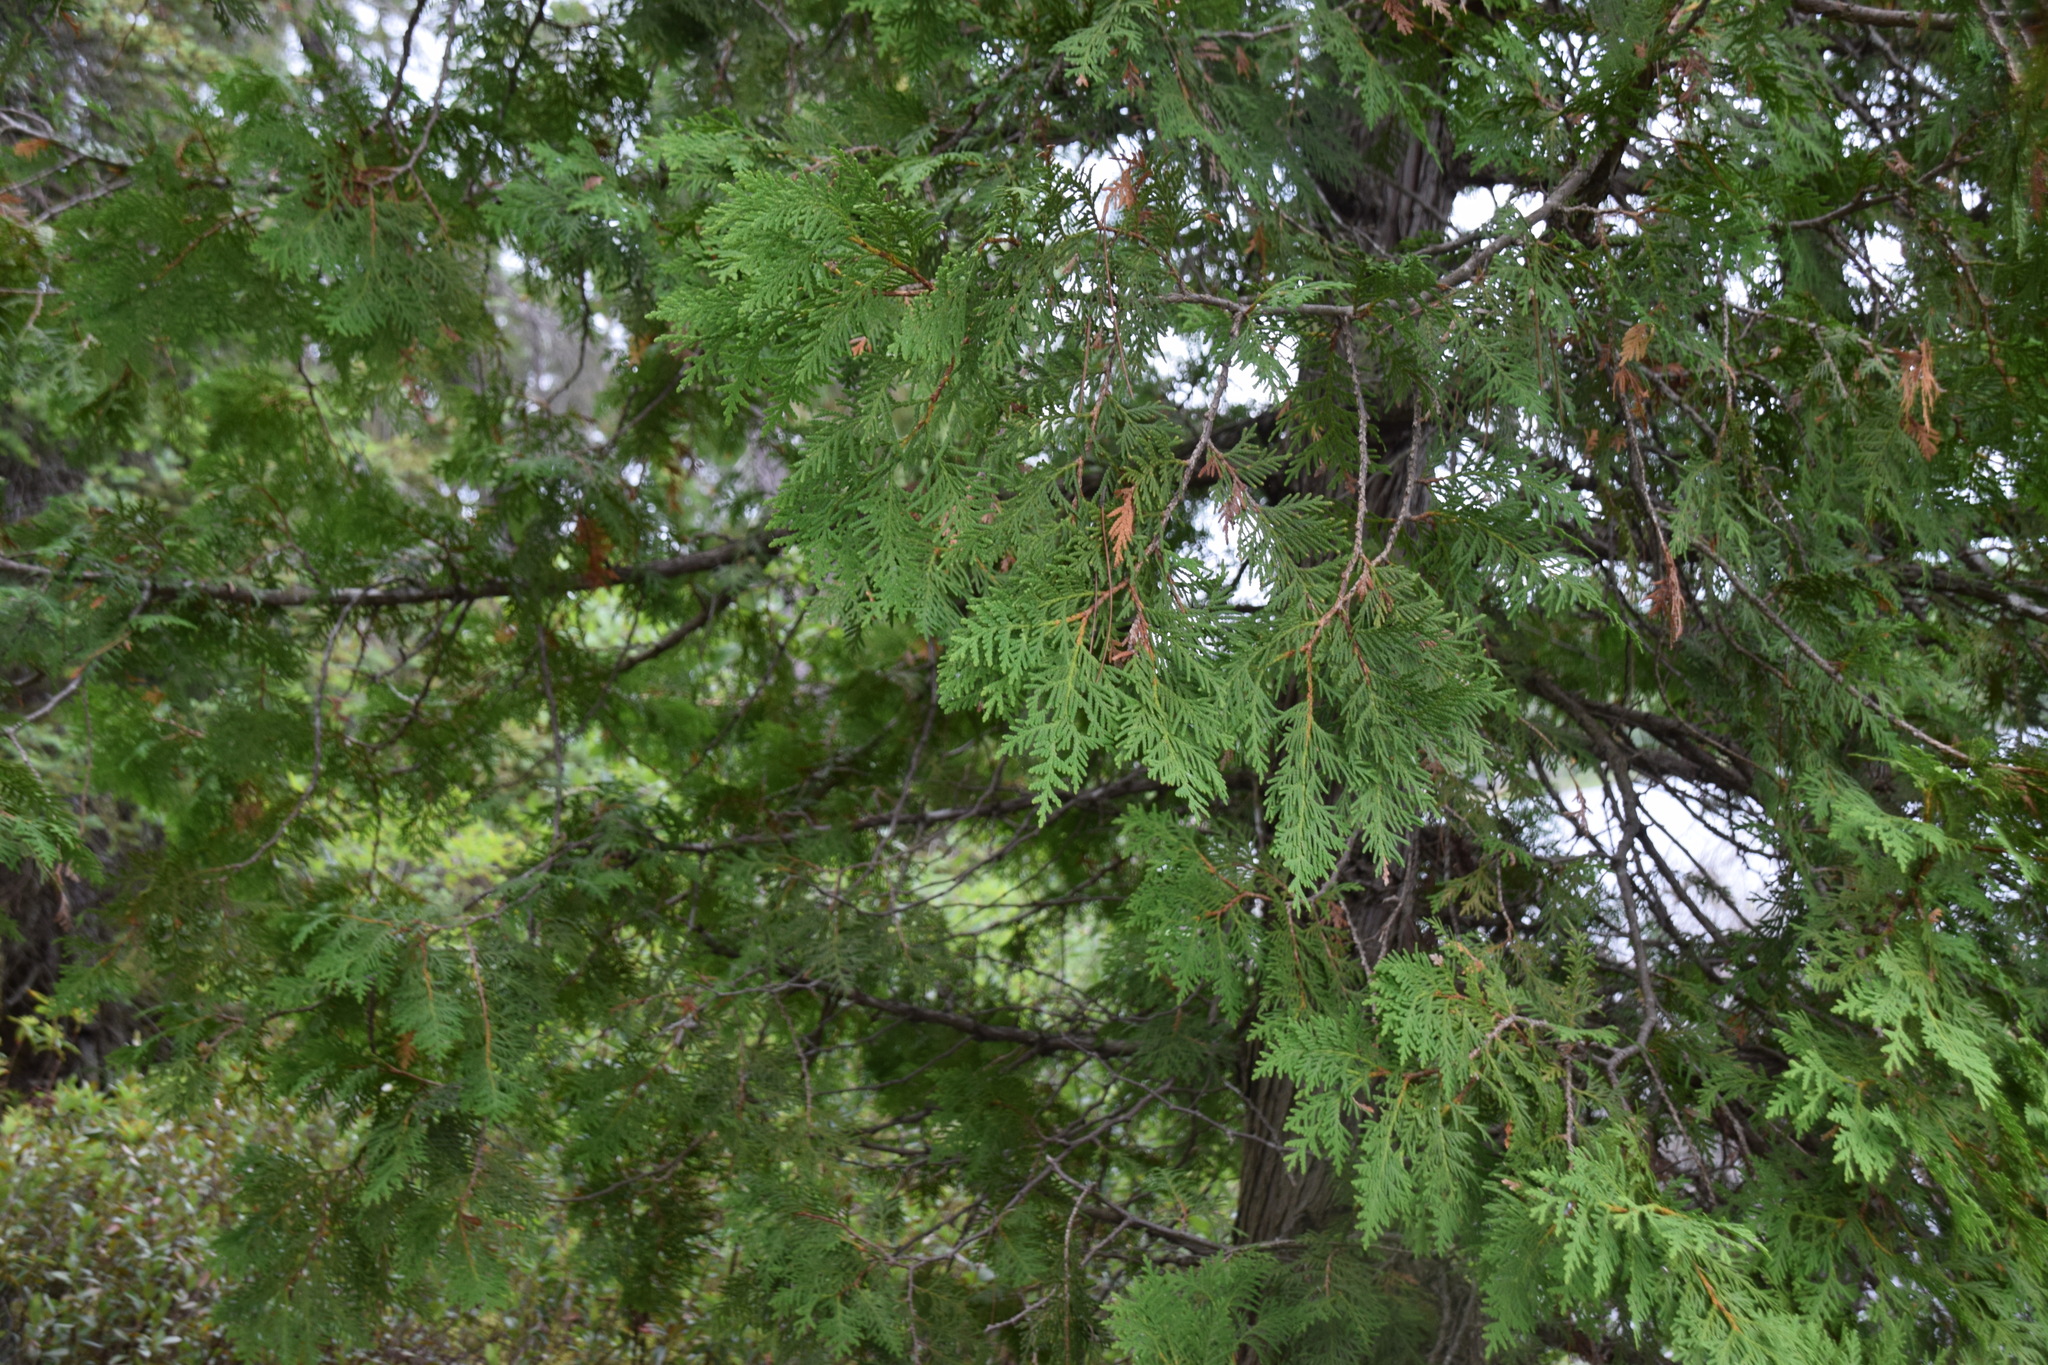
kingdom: Plantae
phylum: Tracheophyta
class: Pinopsida
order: Pinales
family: Cupressaceae
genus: Thuja
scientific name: Thuja occidentalis
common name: Northern white-cedar
